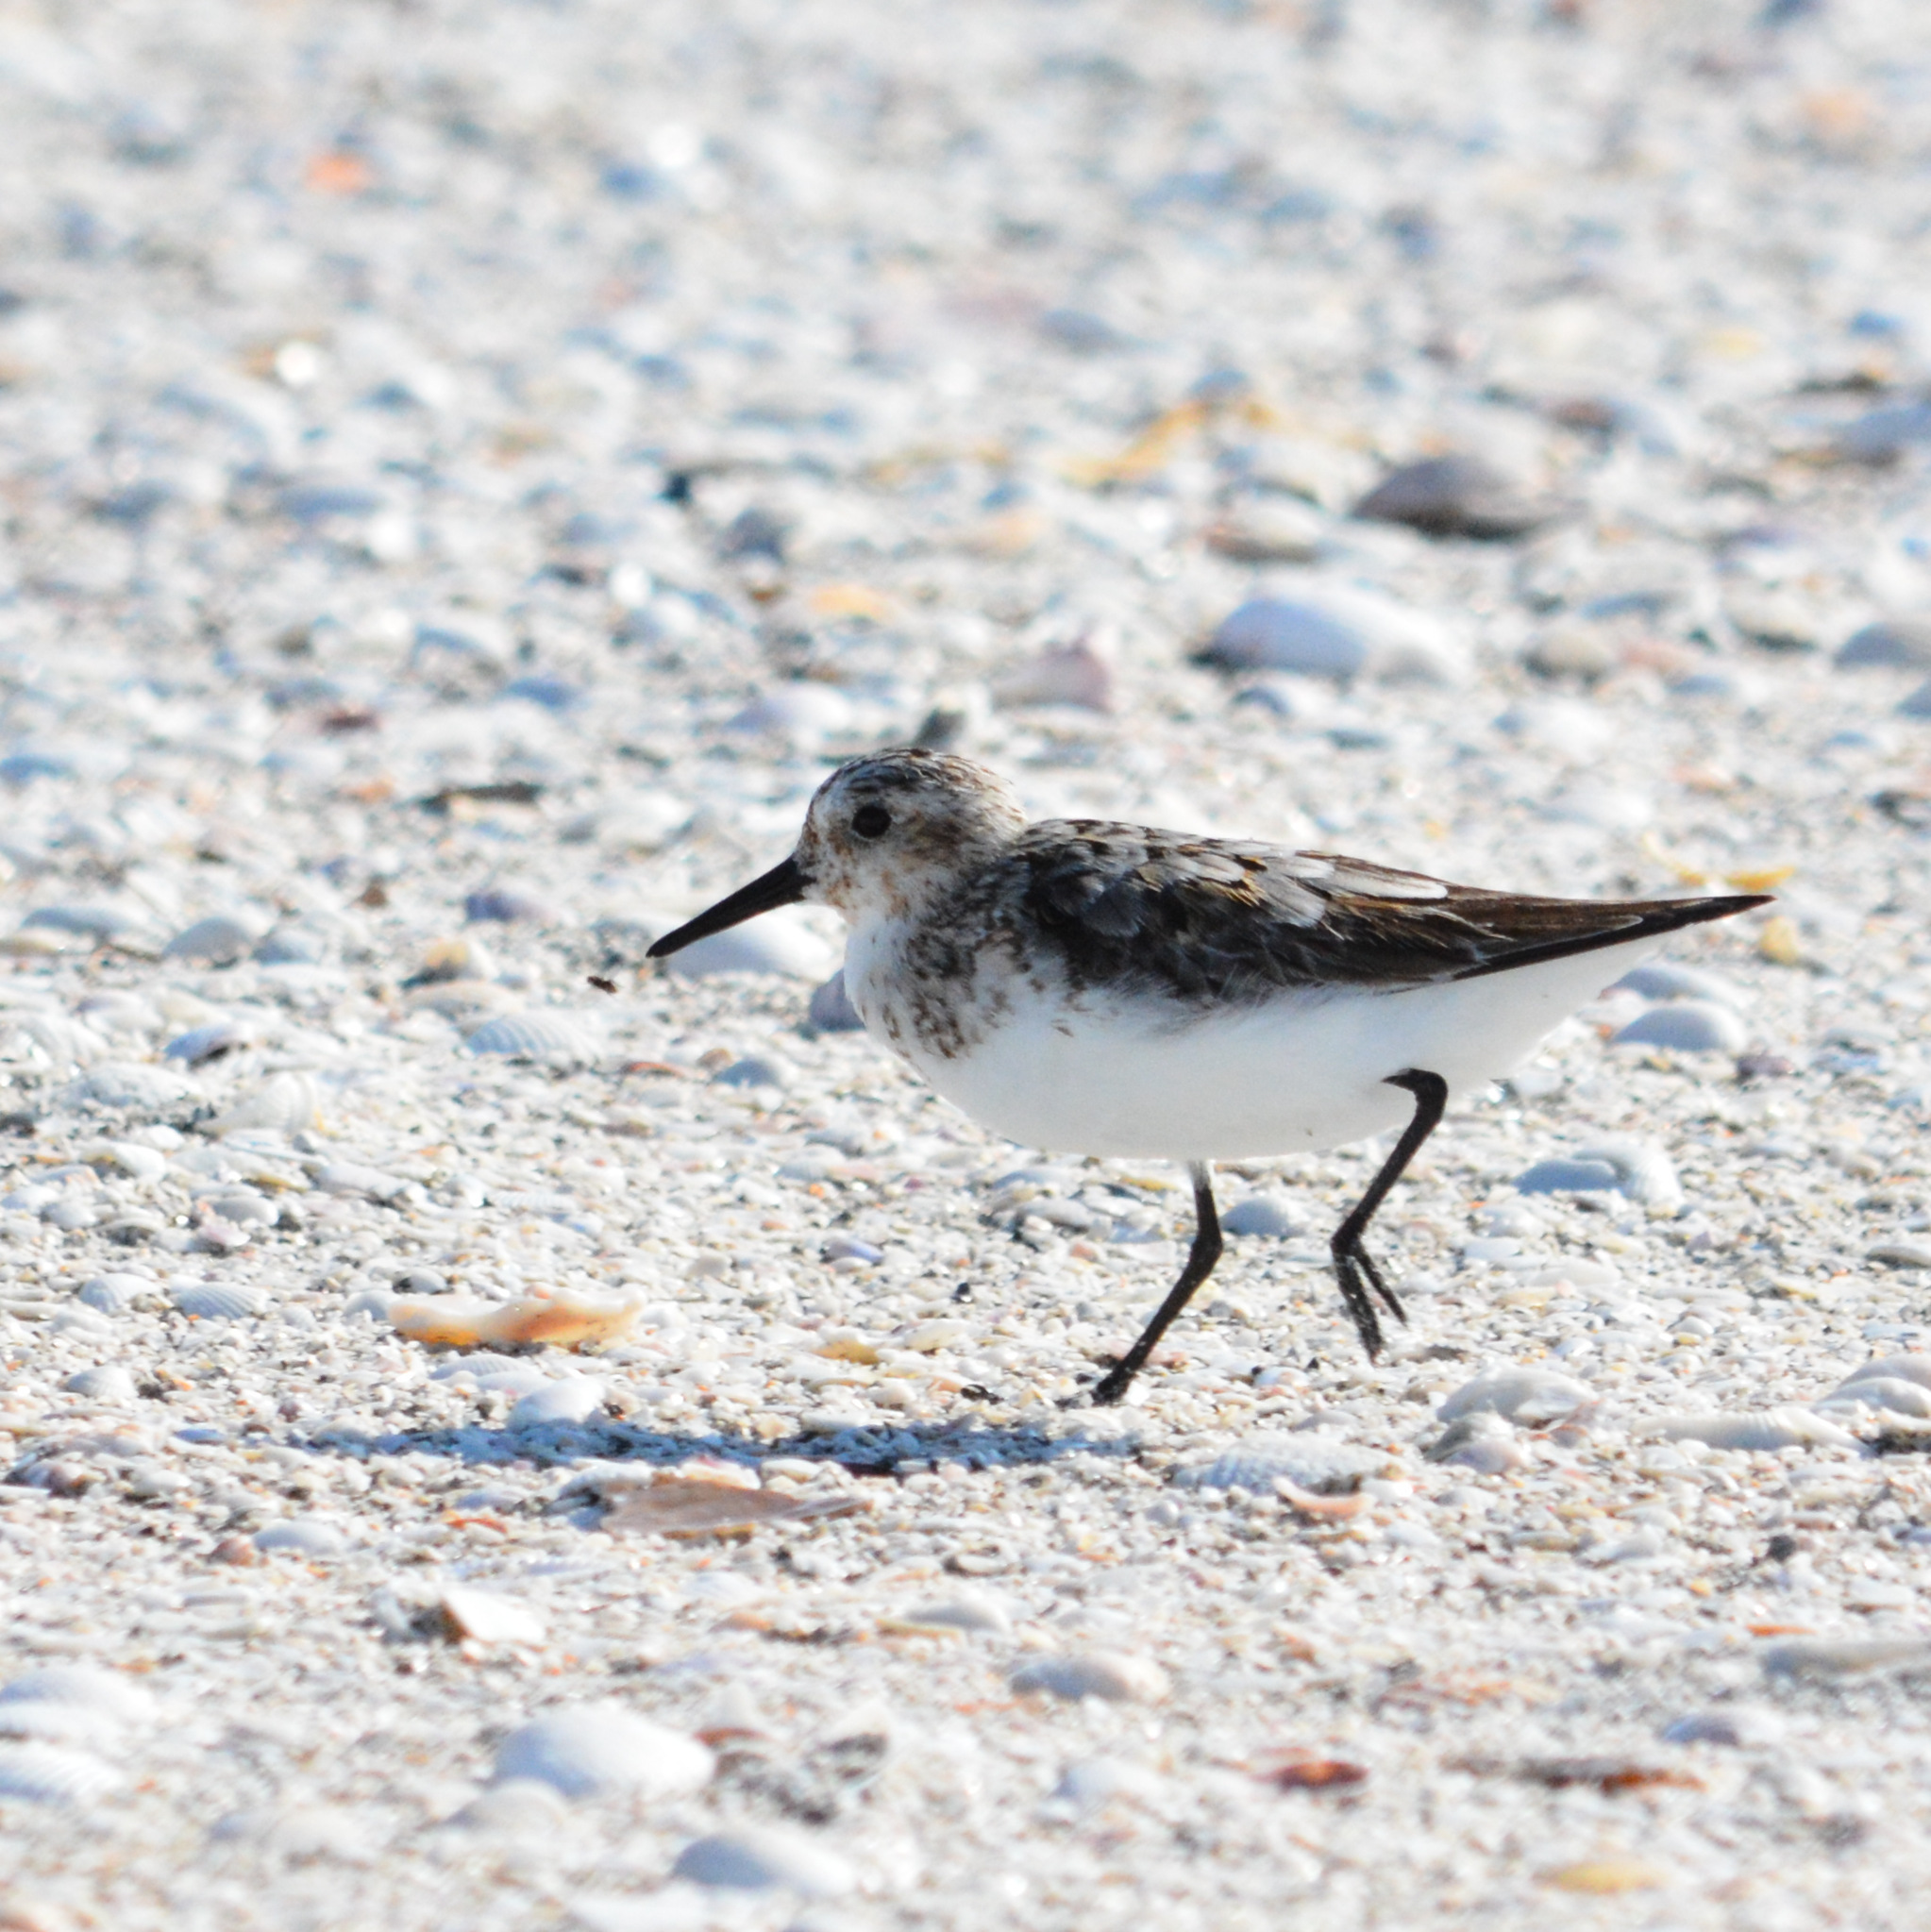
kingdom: Animalia
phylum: Chordata
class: Aves
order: Charadriiformes
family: Scolopacidae
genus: Calidris
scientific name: Calidris alba
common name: Sanderling
